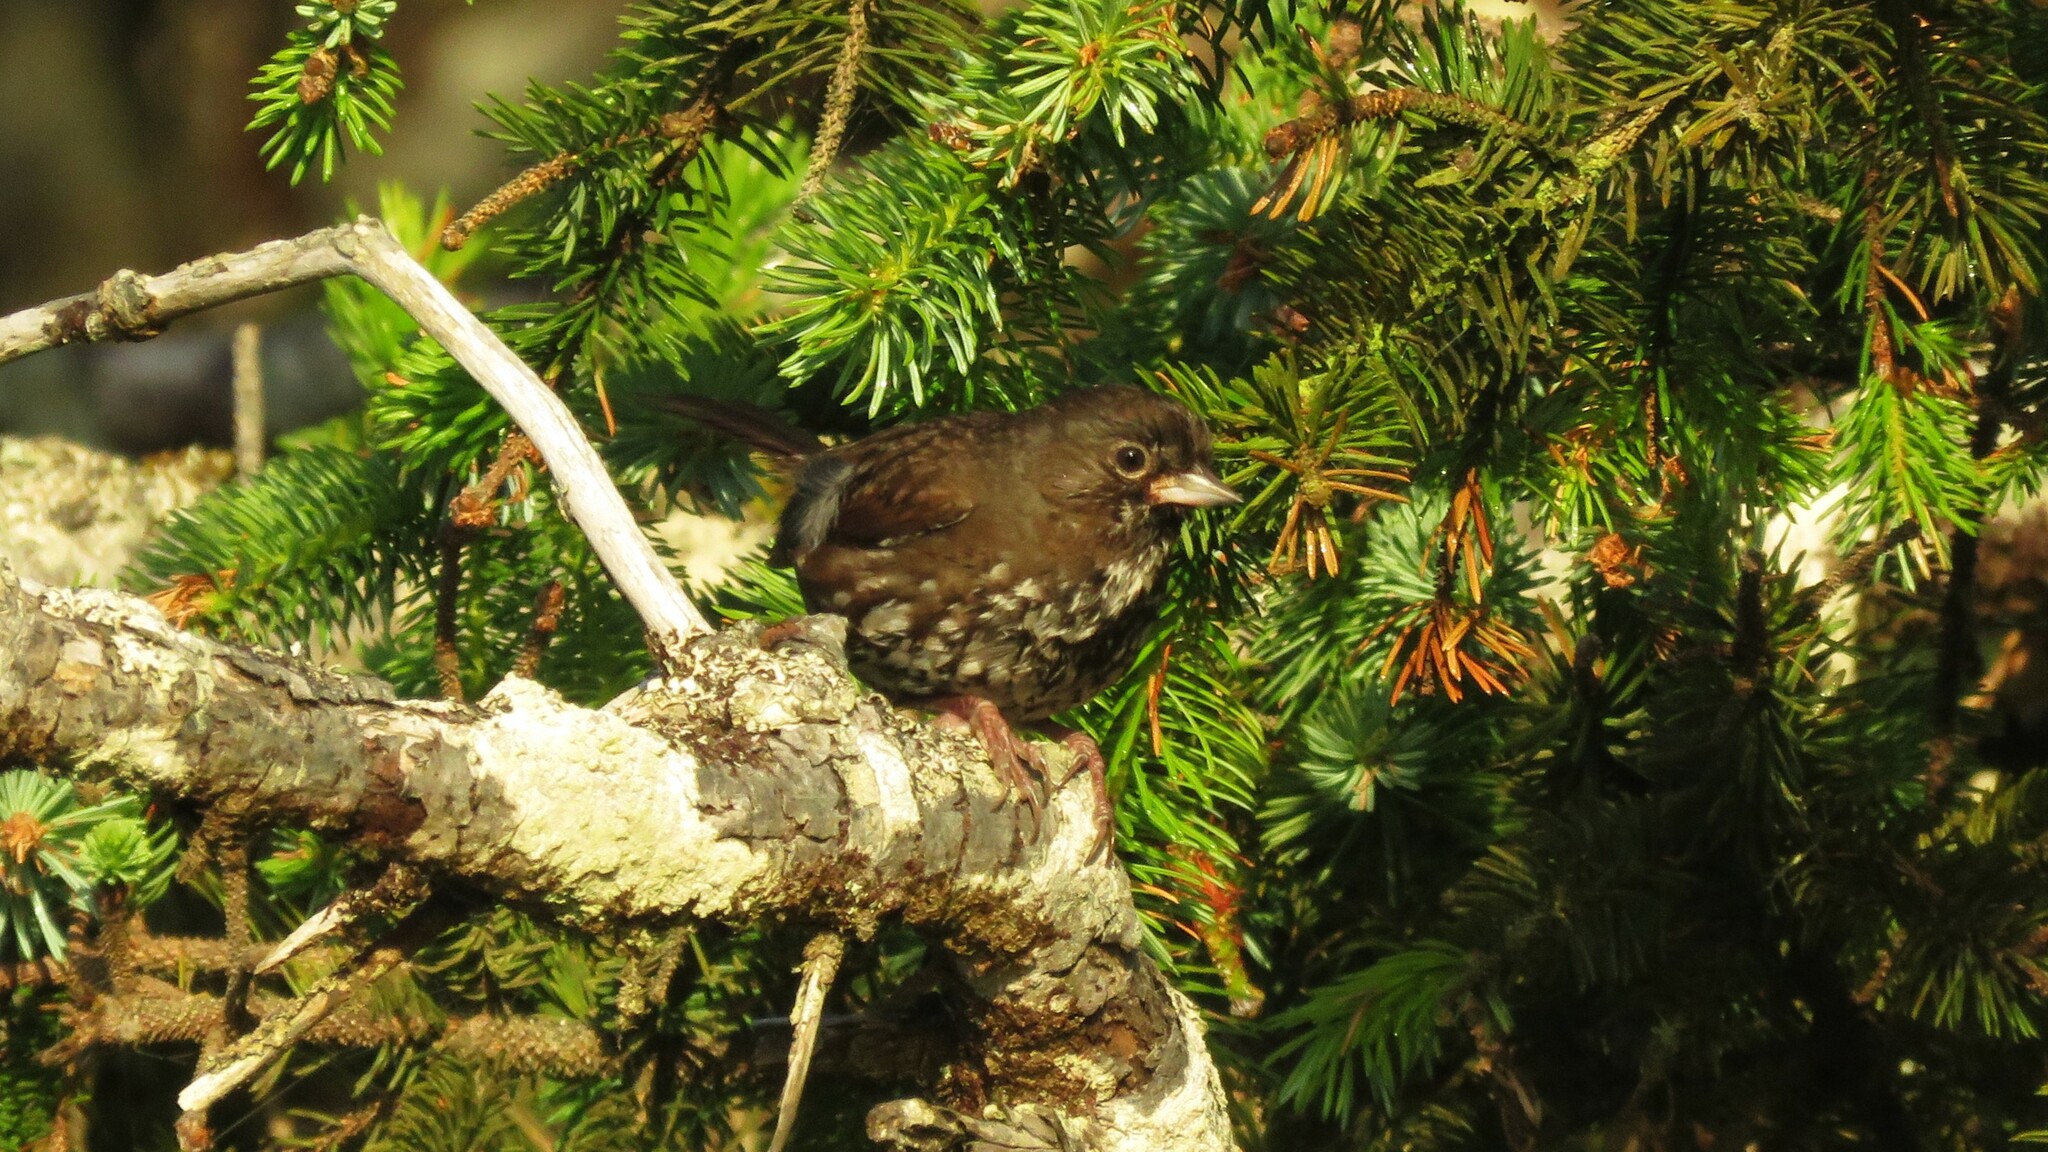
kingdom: Animalia
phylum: Chordata
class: Aves
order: Passeriformes
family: Passerellidae
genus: Passerella
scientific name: Passerella iliaca
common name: Fox sparrow
